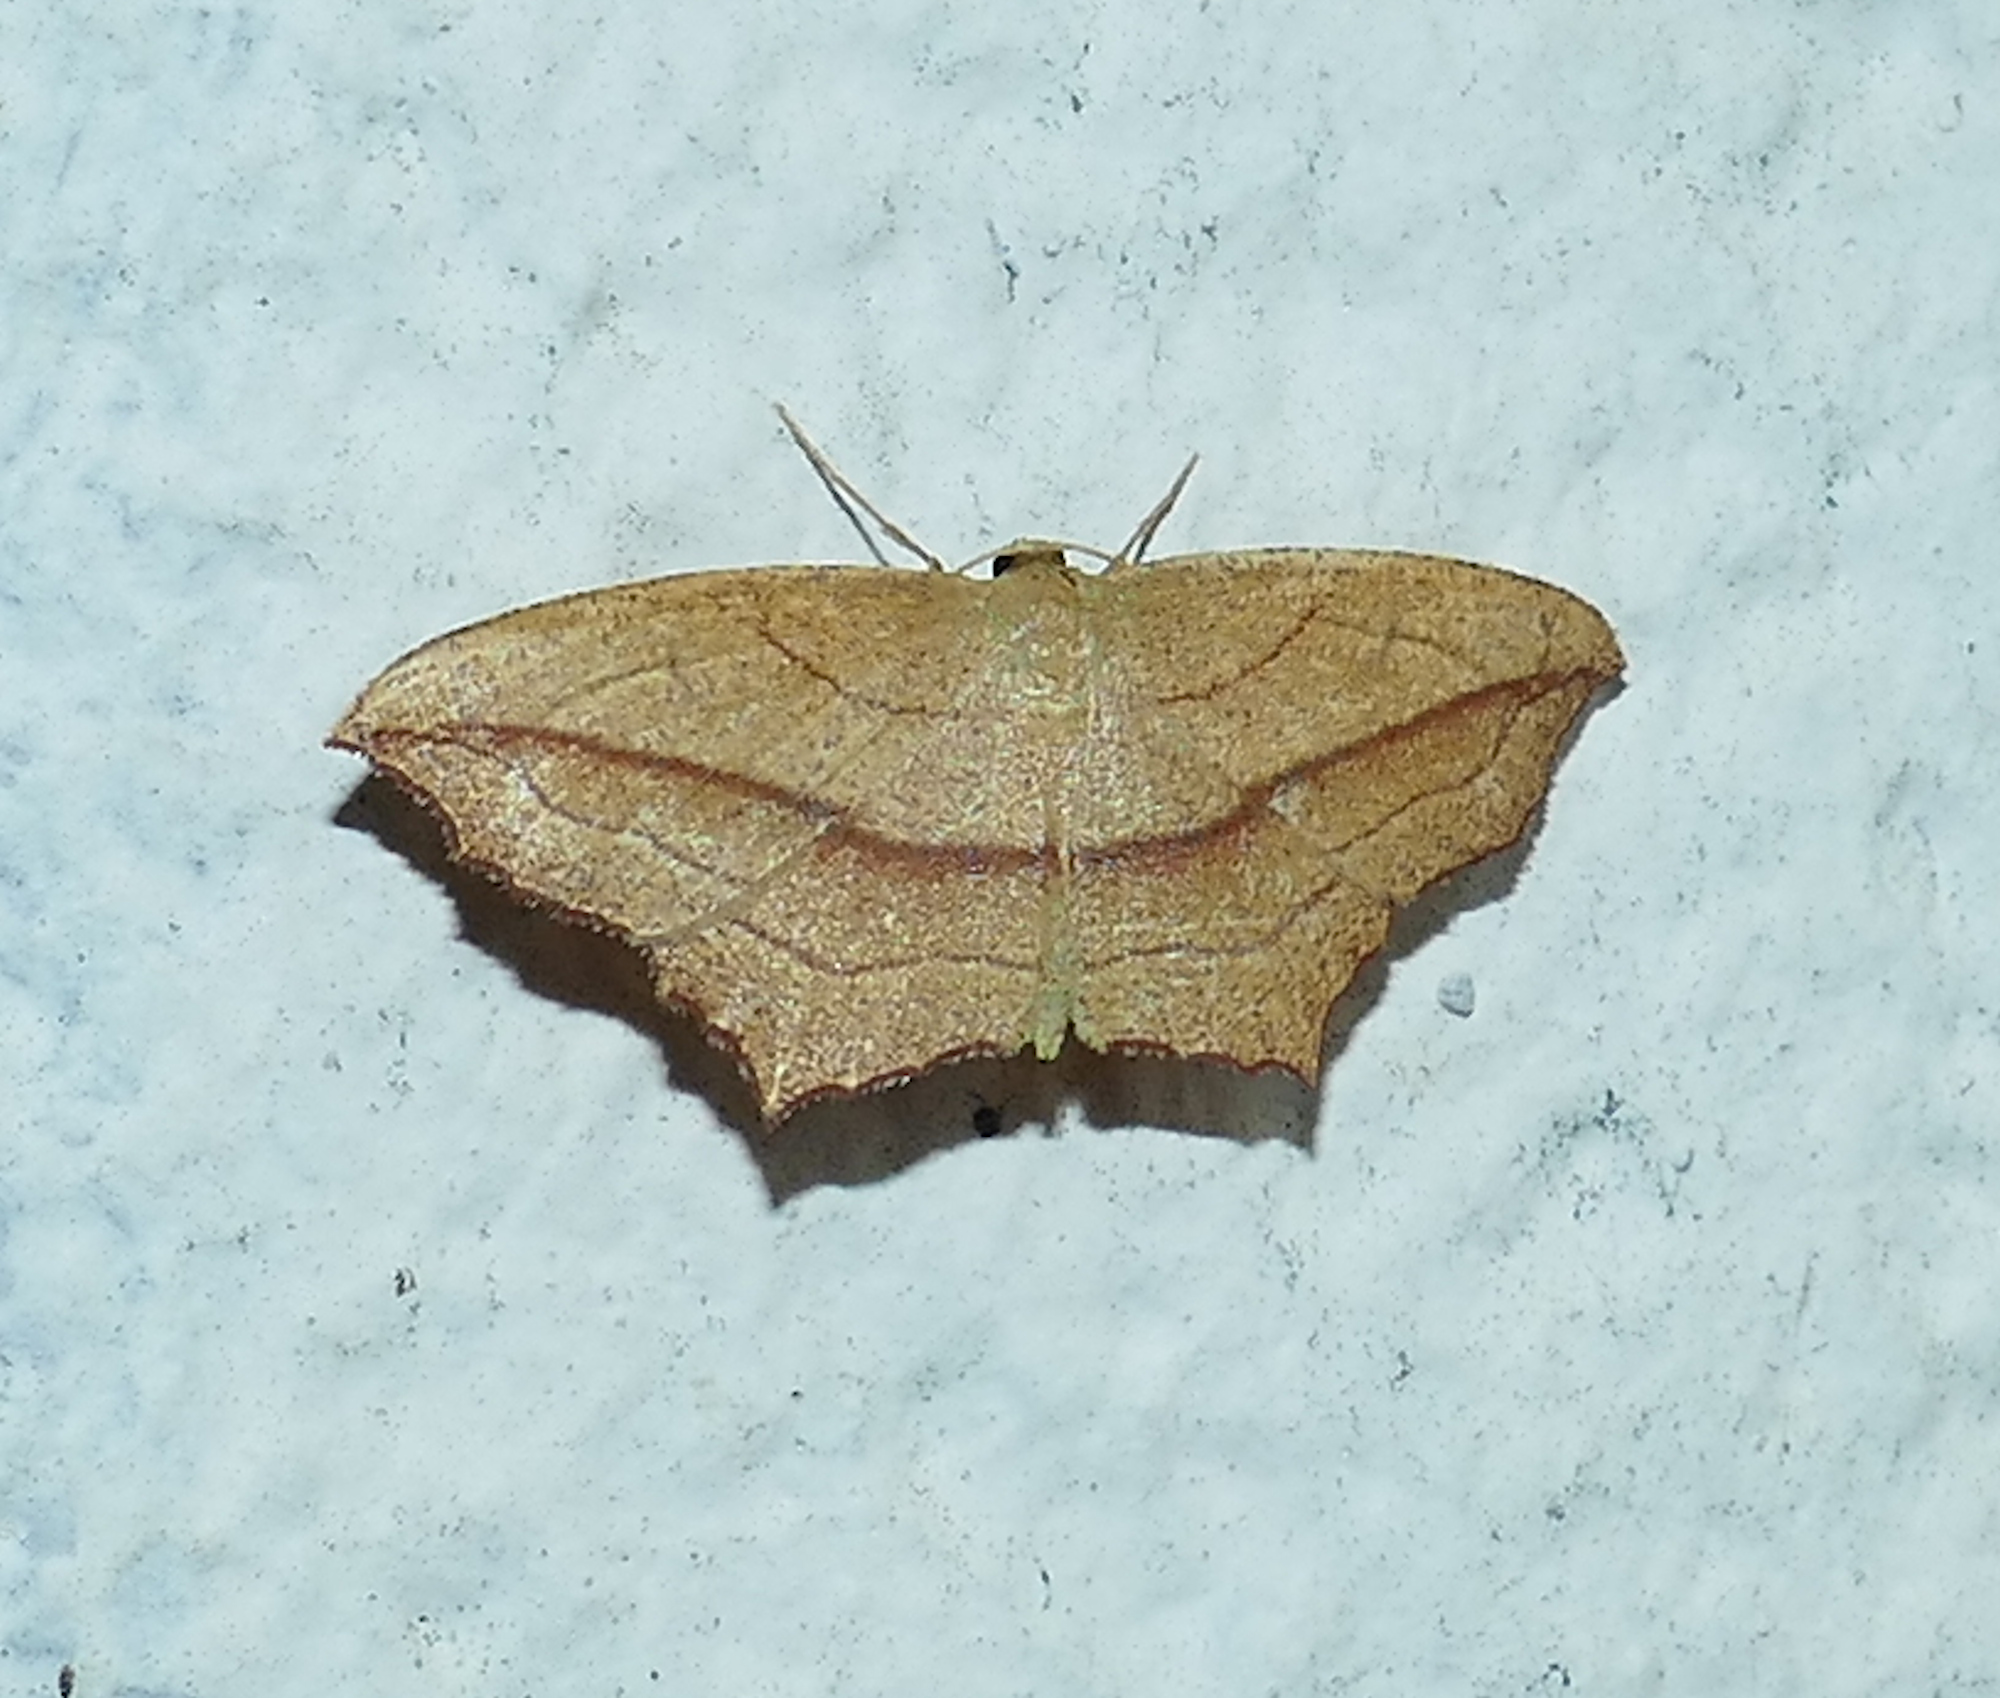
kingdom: Animalia
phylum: Arthropoda
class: Insecta
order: Lepidoptera
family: Geometridae
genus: Timandra
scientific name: Timandra amaturaria
